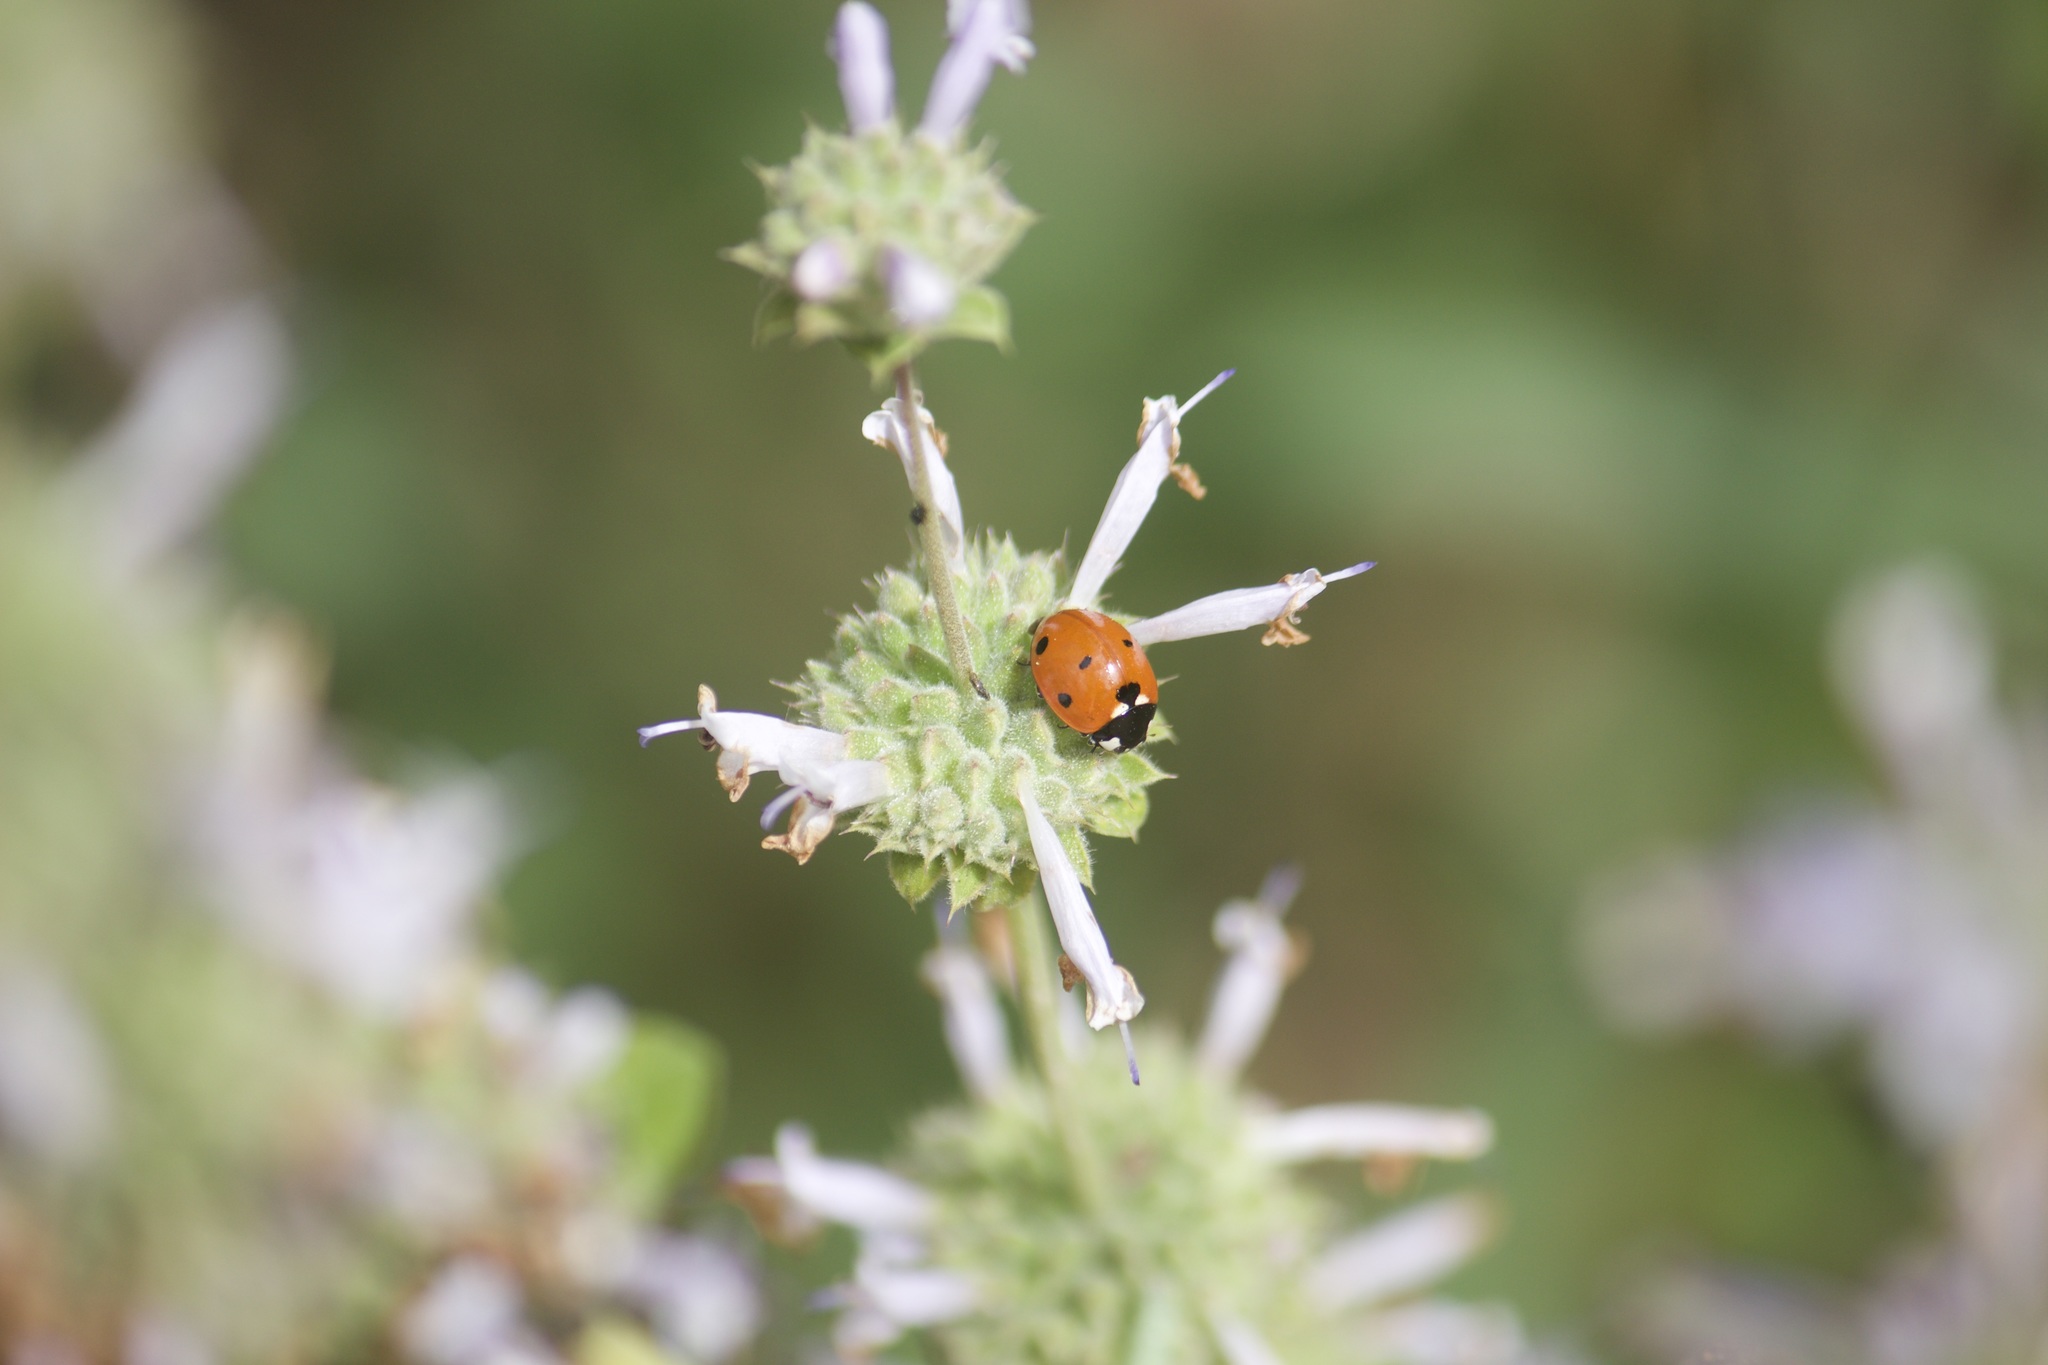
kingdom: Animalia
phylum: Arthropoda
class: Insecta
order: Coleoptera
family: Coccinellidae
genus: Coccinella
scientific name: Coccinella septempunctata
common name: Sevenspotted lady beetle
